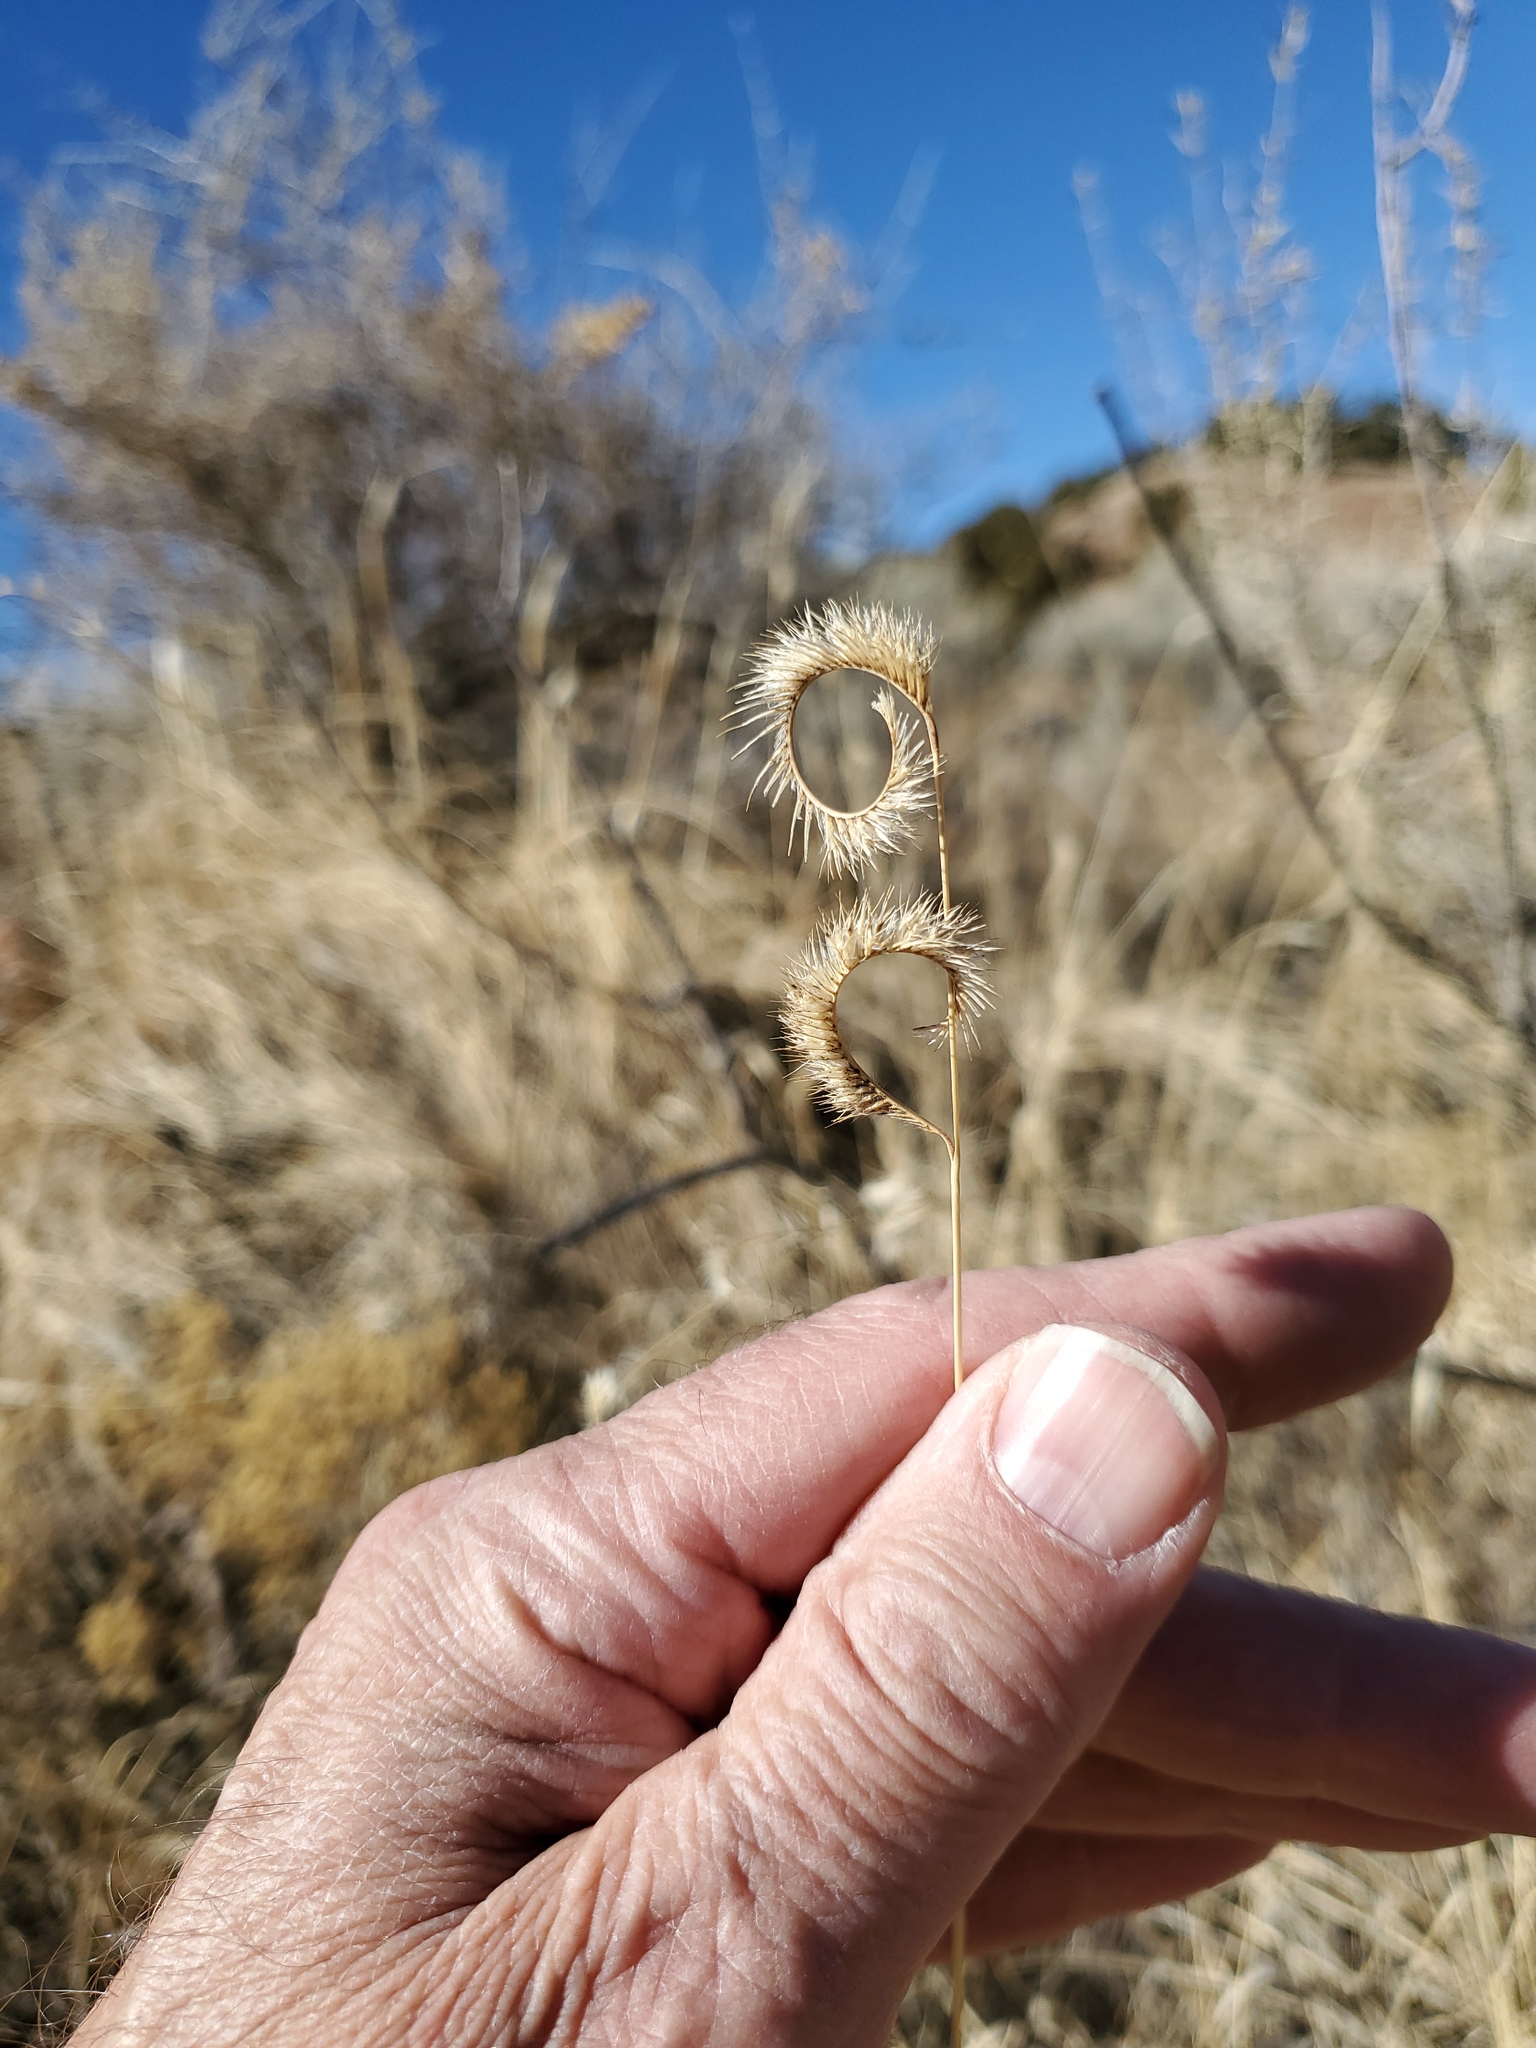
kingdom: Plantae
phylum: Tracheophyta
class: Liliopsida
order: Poales
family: Poaceae
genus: Bouteloua
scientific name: Bouteloua gracilis
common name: Blue grama
